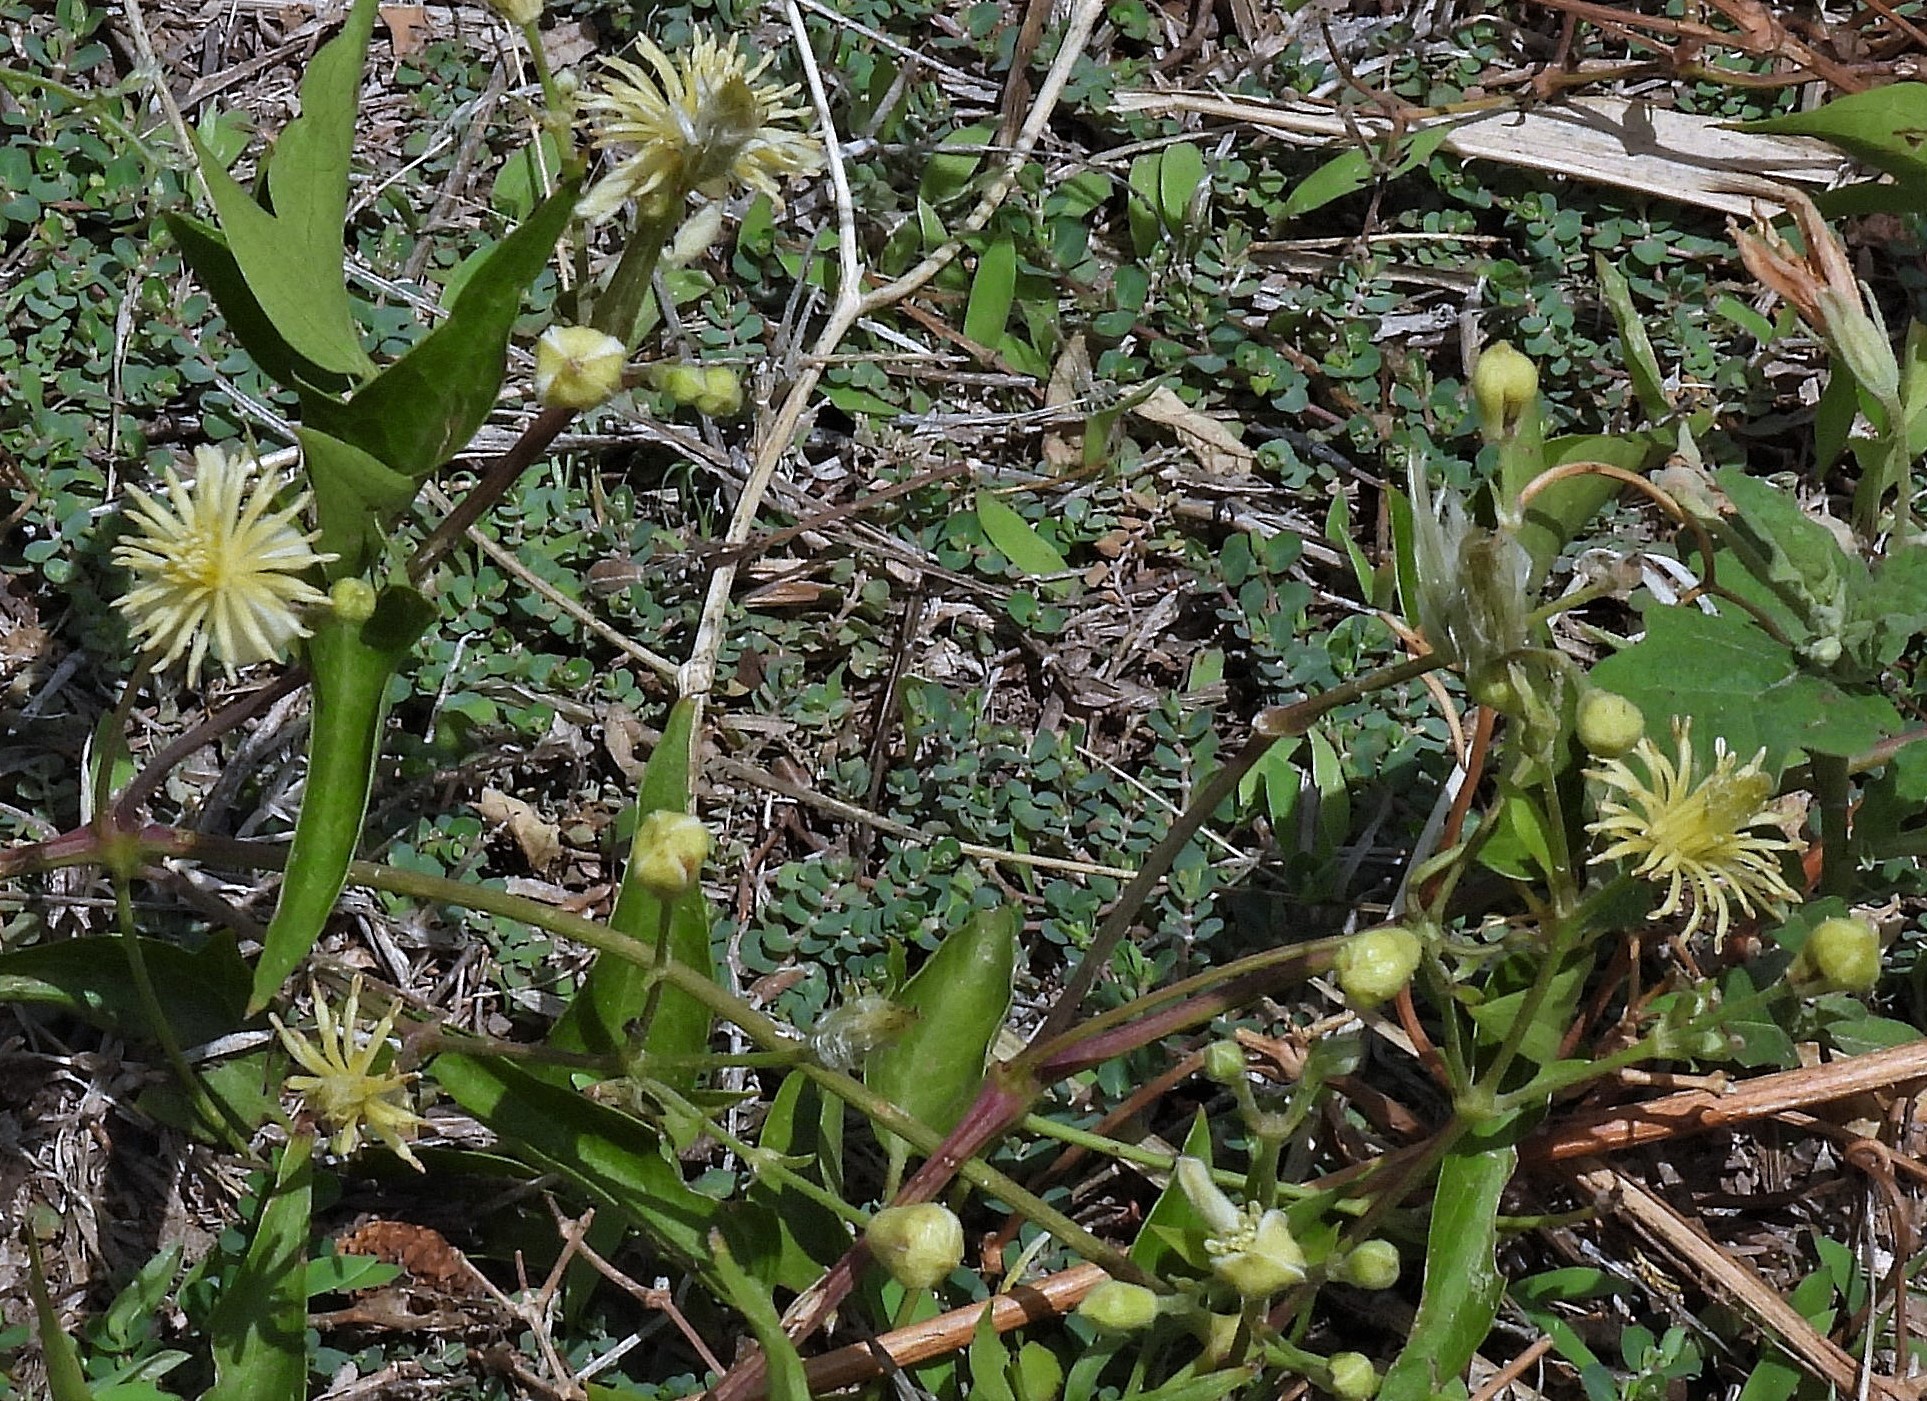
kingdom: Plantae
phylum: Tracheophyta
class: Magnoliopsida
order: Ranunculales
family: Ranunculaceae
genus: Clematis
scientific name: Clematis montevidensis
